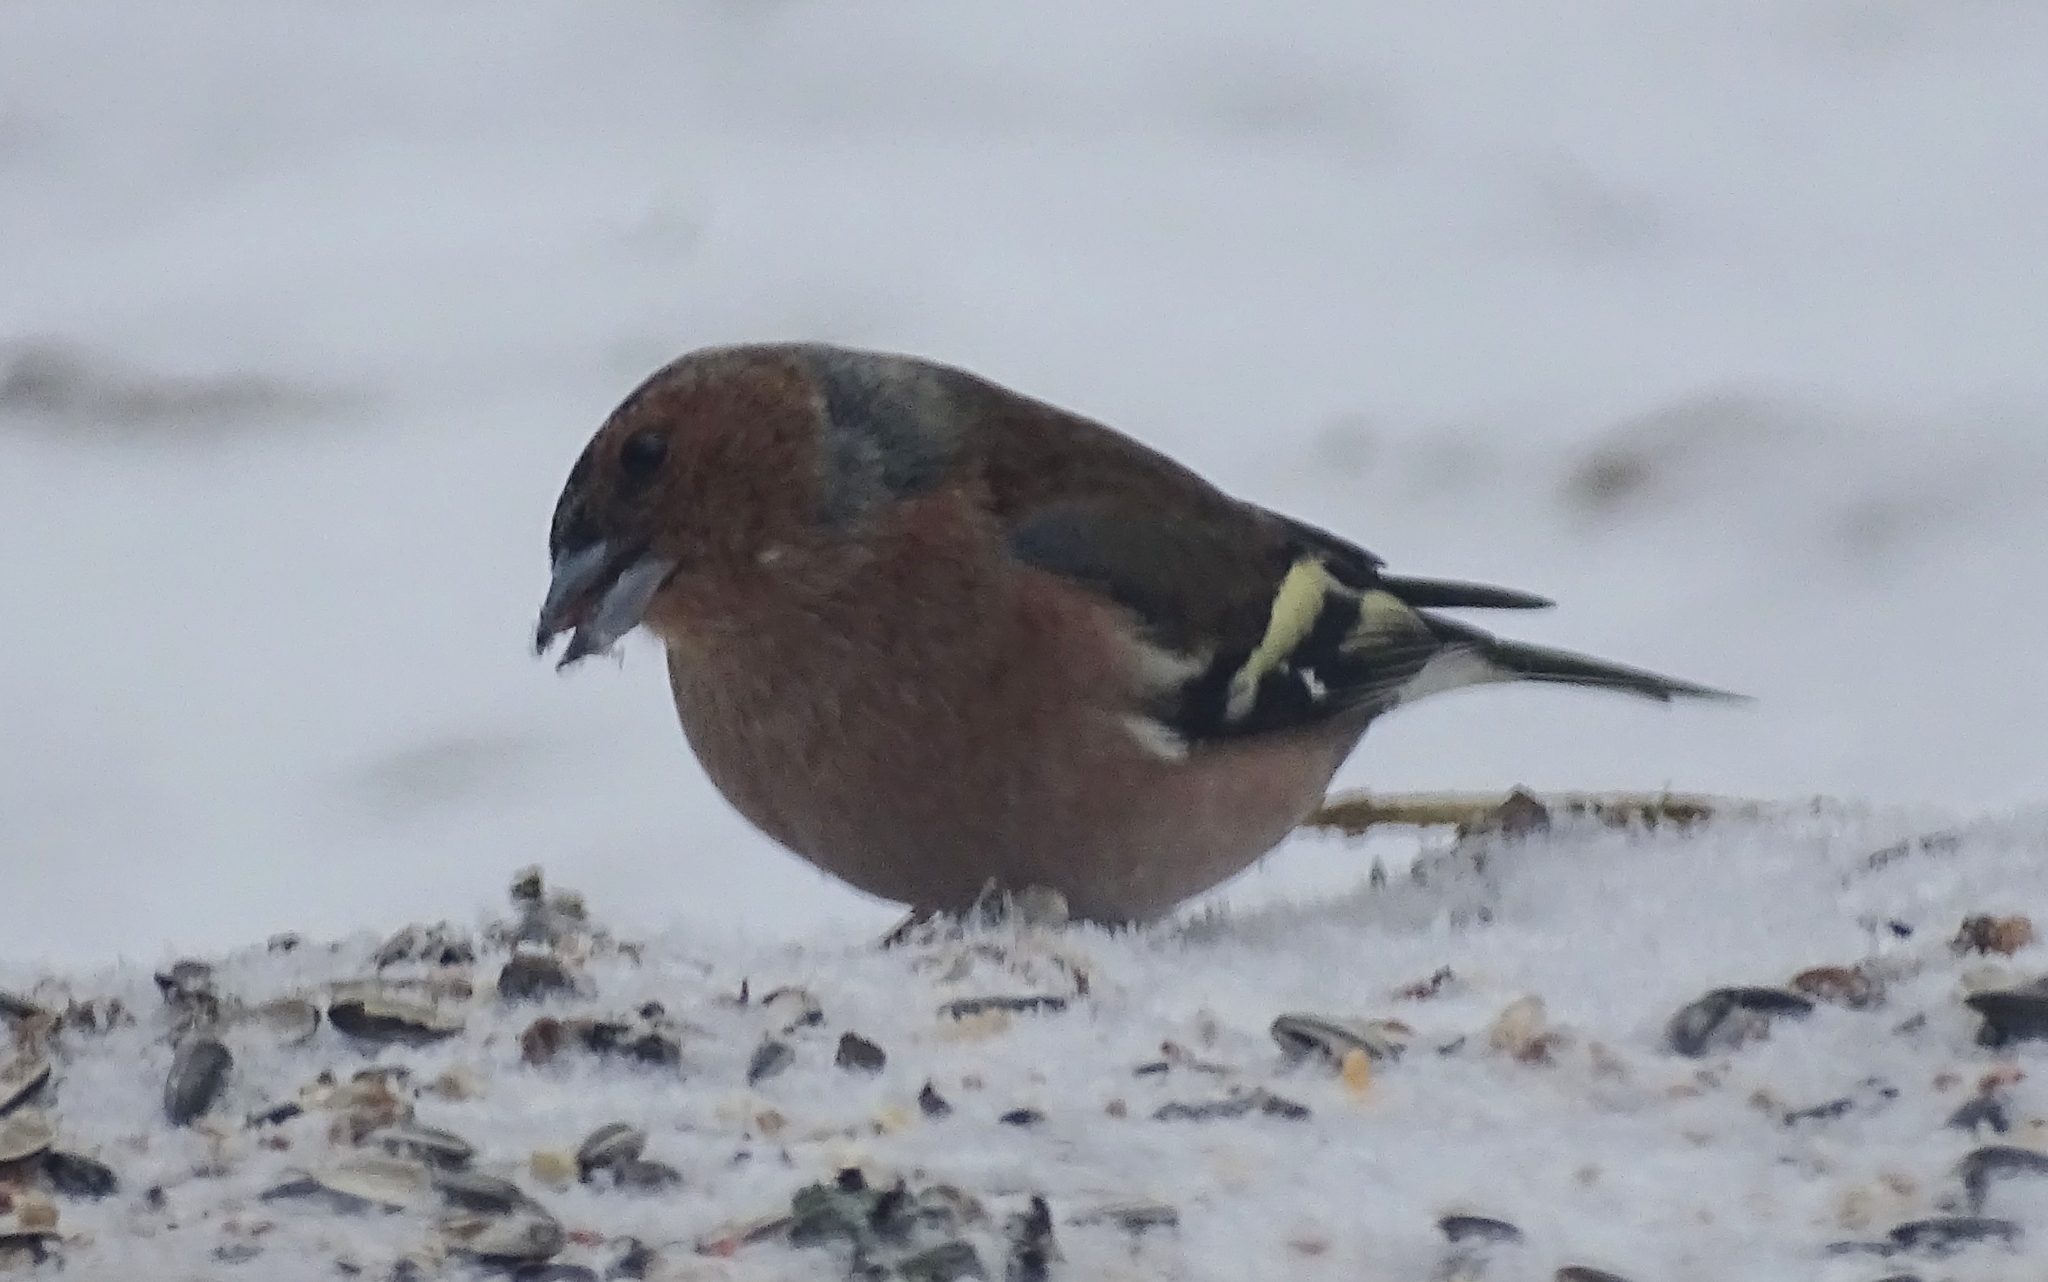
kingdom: Animalia
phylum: Chordata
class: Aves
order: Passeriformes
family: Fringillidae
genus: Fringilla
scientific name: Fringilla coelebs
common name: Common chaffinch
